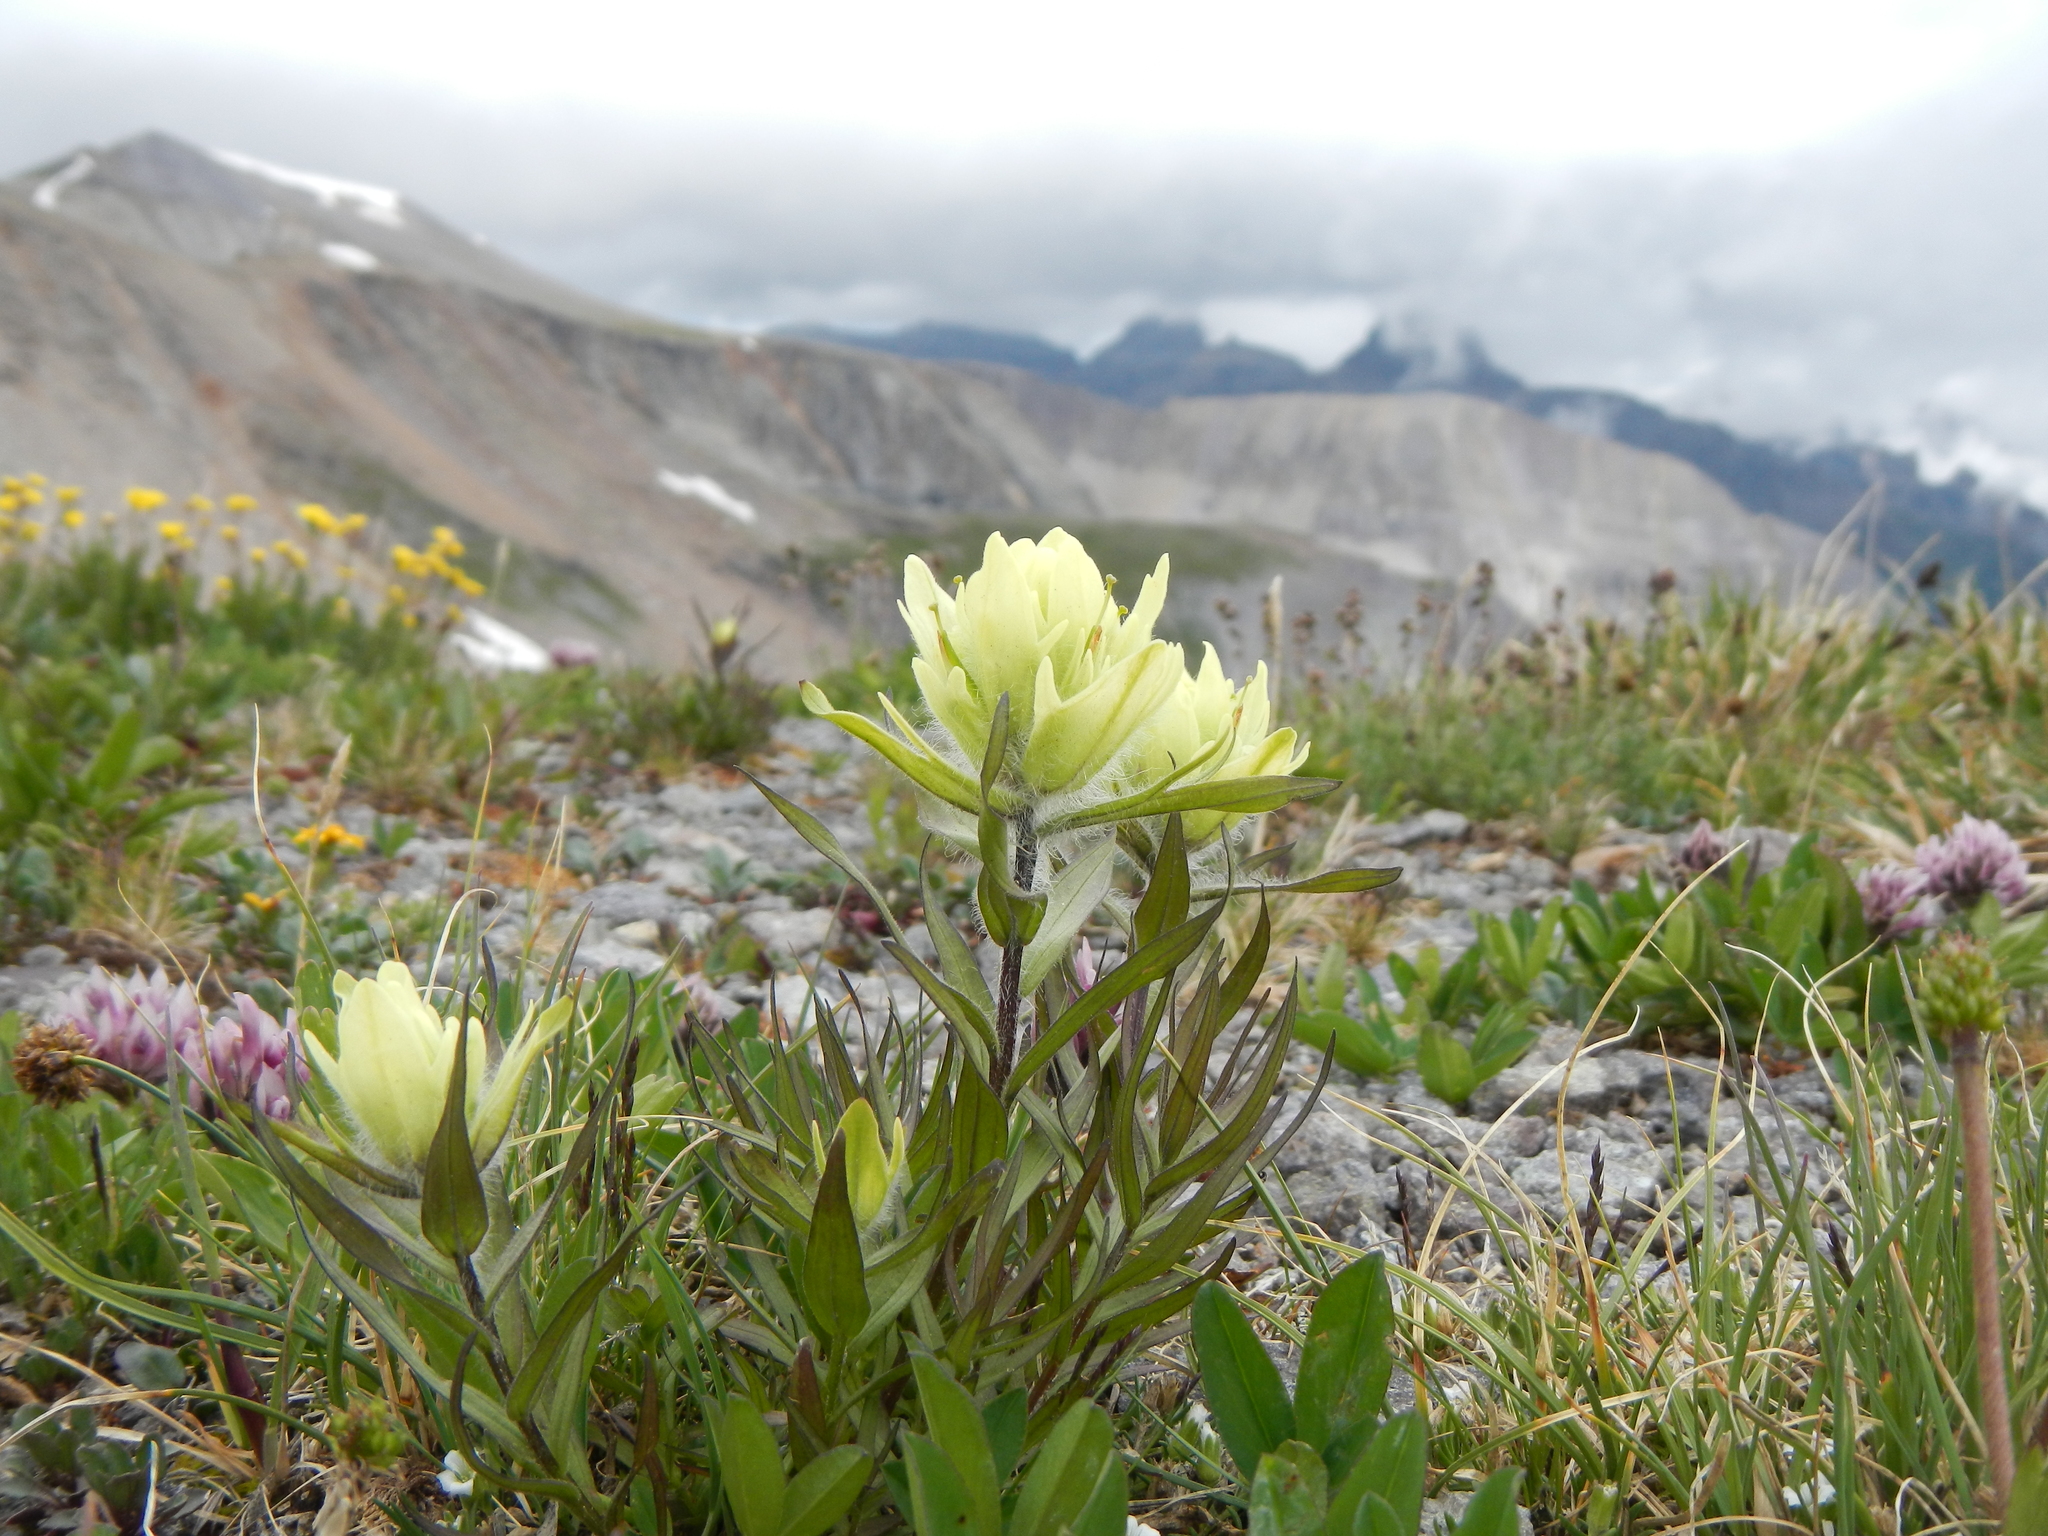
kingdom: Plantae
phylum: Tracheophyta
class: Magnoliopsida
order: Lamiales
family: Orobanchaceae
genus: Castilleja
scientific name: Castilleja occidentalis
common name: Western paintbrush
